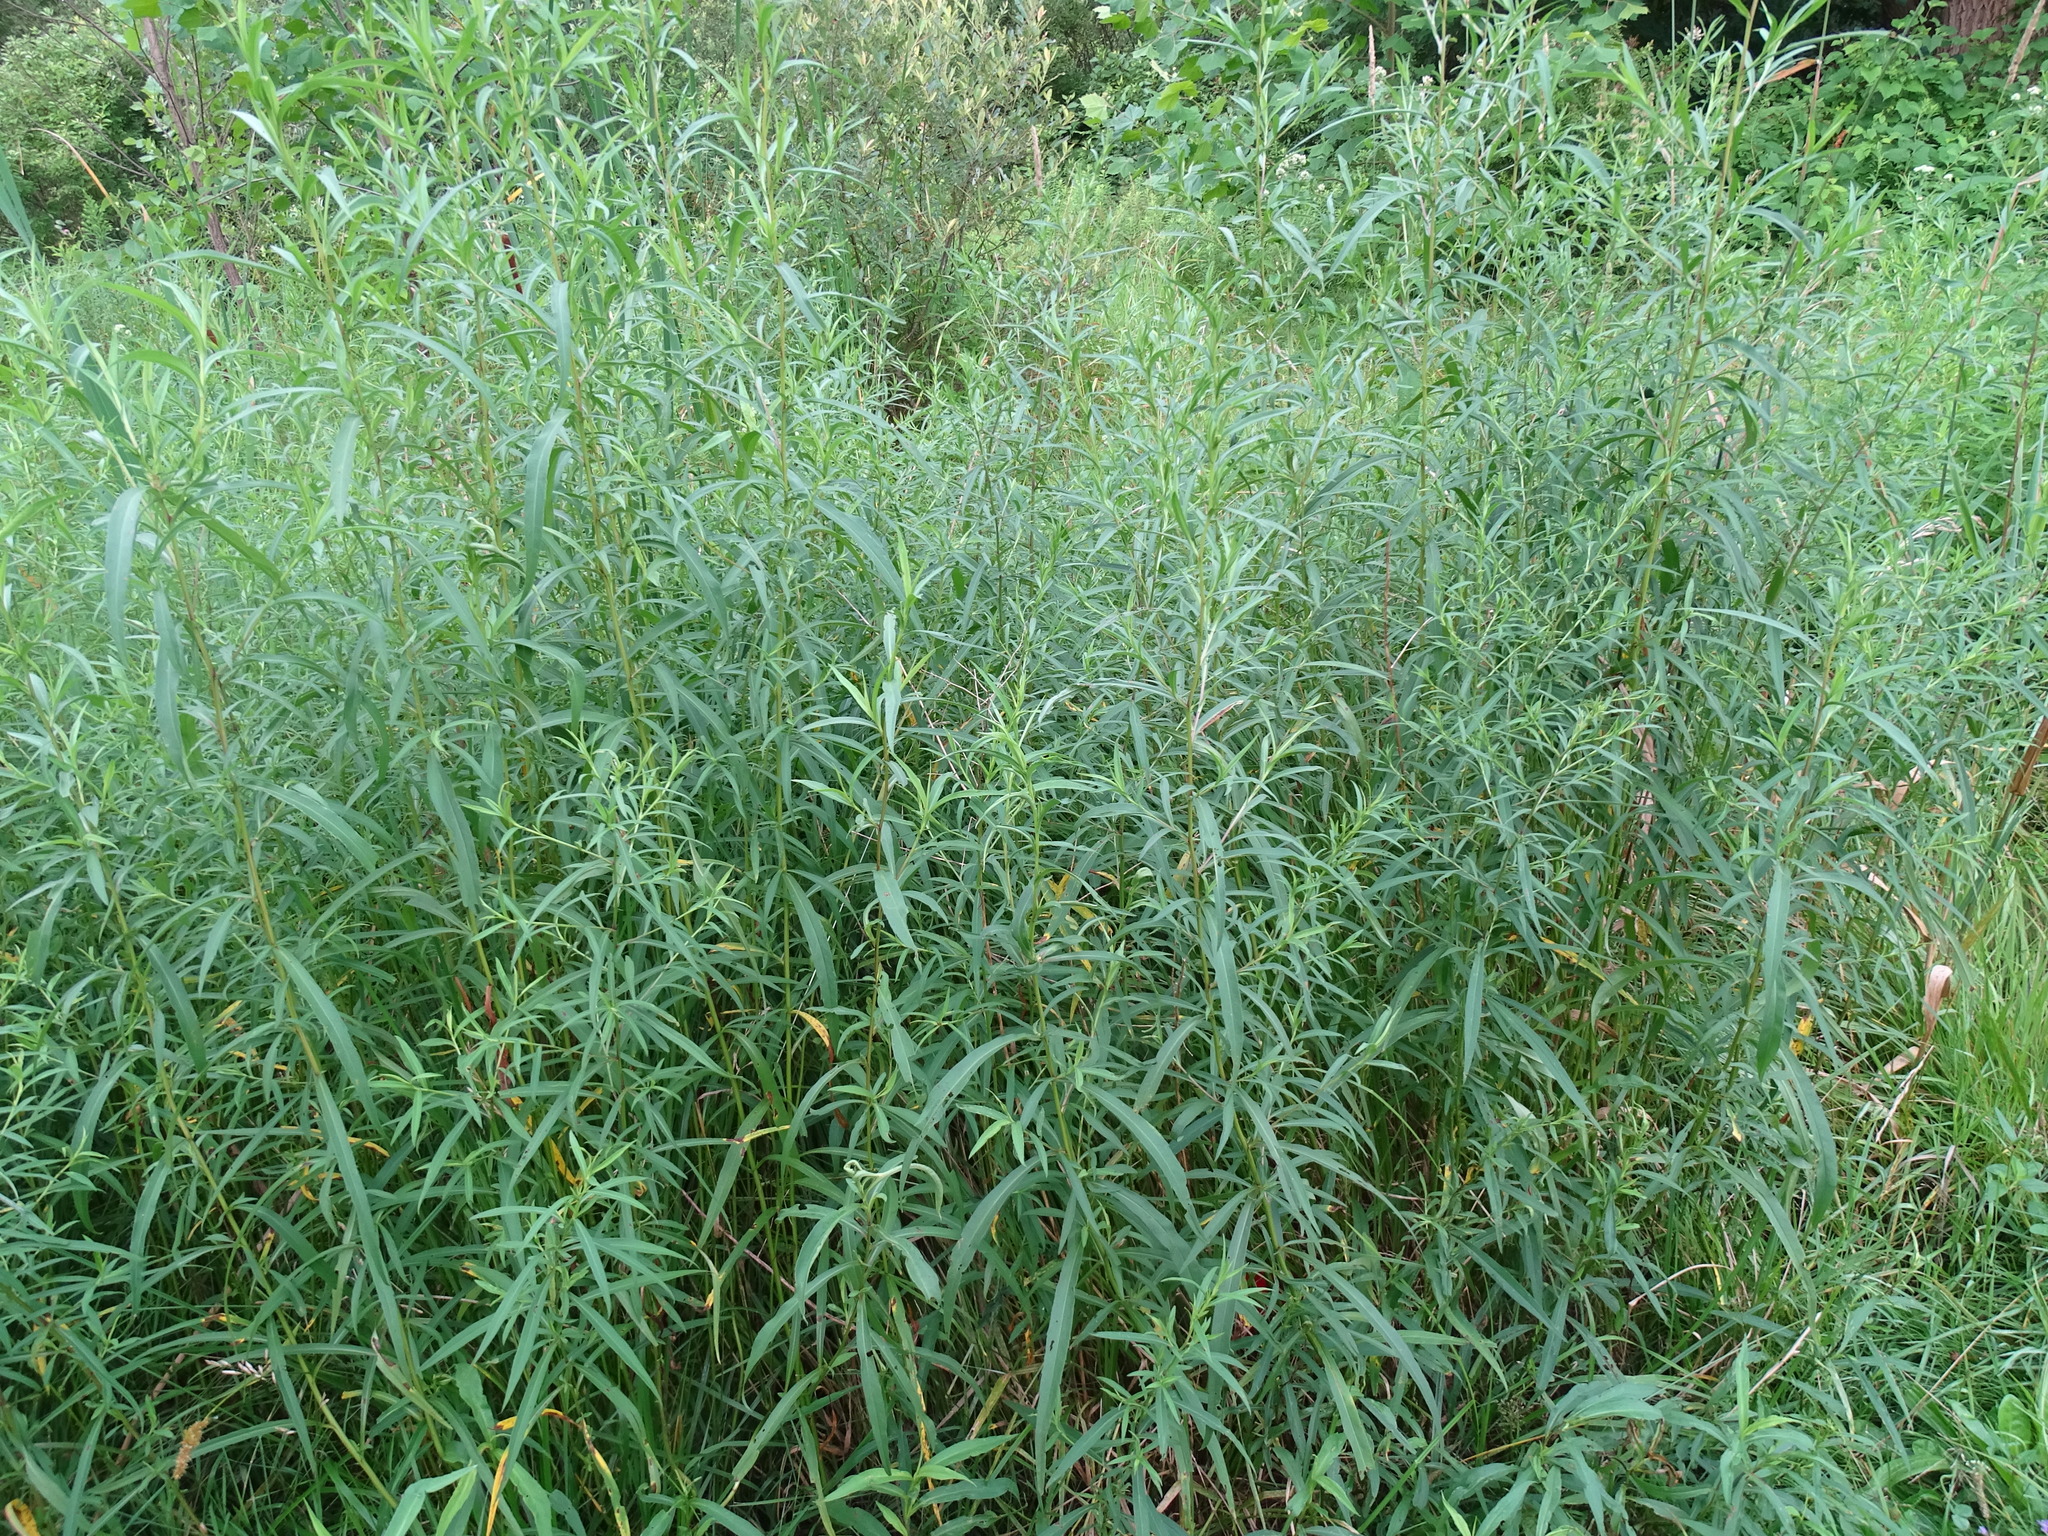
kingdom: Plantae
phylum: Tracheophyta
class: Magnoliopsida
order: Asterales
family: Asteraceae
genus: Symphyotrichum
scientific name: Symphyotrichum lanceolatum
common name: Panicled aster
